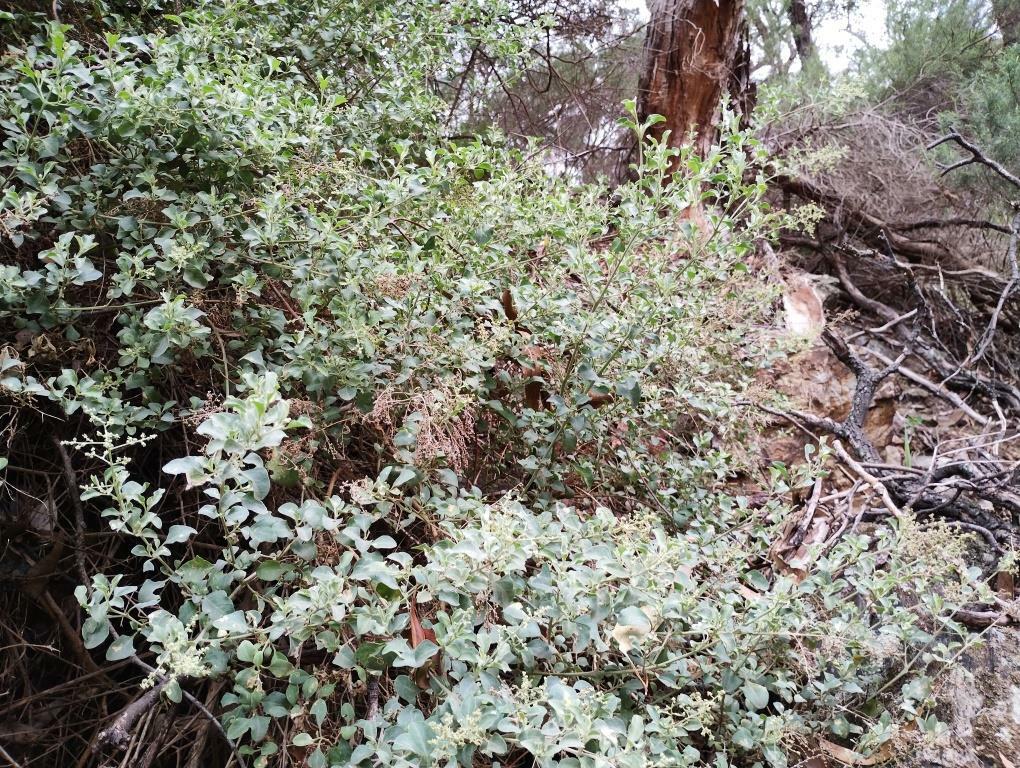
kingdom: Plantae
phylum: Tracheophyta
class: Magnoliopsida
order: Caryophyllales
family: Amaranthaceae
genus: Chenopodium
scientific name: Chenopodium parabolicum
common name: Old-man-saltbush
